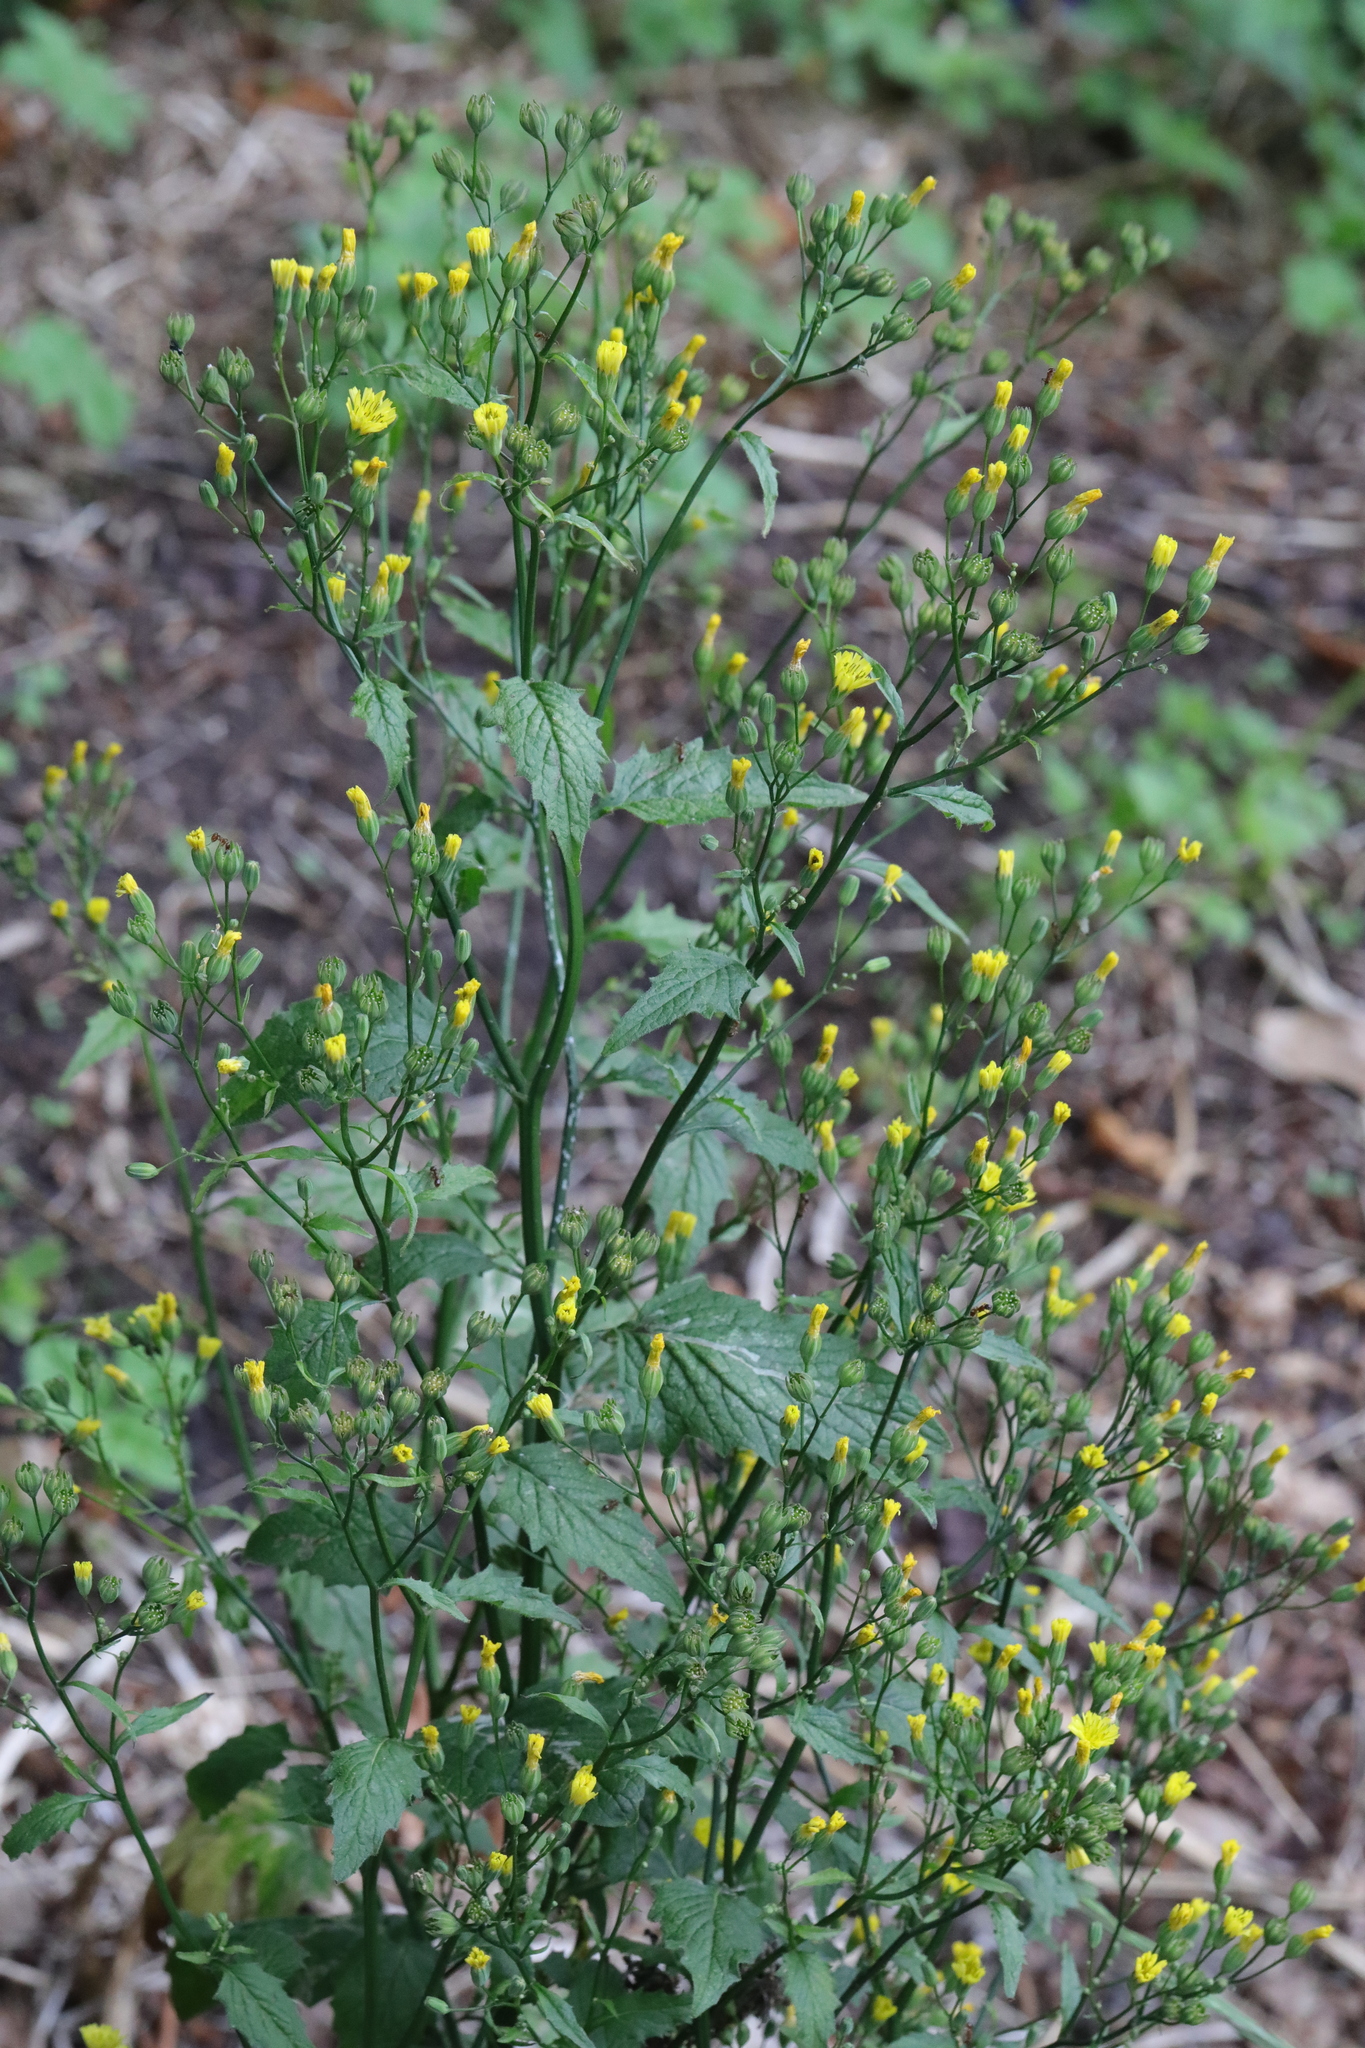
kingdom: Plantae
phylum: Tracheophyta
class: Magnoliopsida
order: Asterales
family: Asteraceae
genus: Lapsana
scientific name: Lapsana communis
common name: Nipplewort
